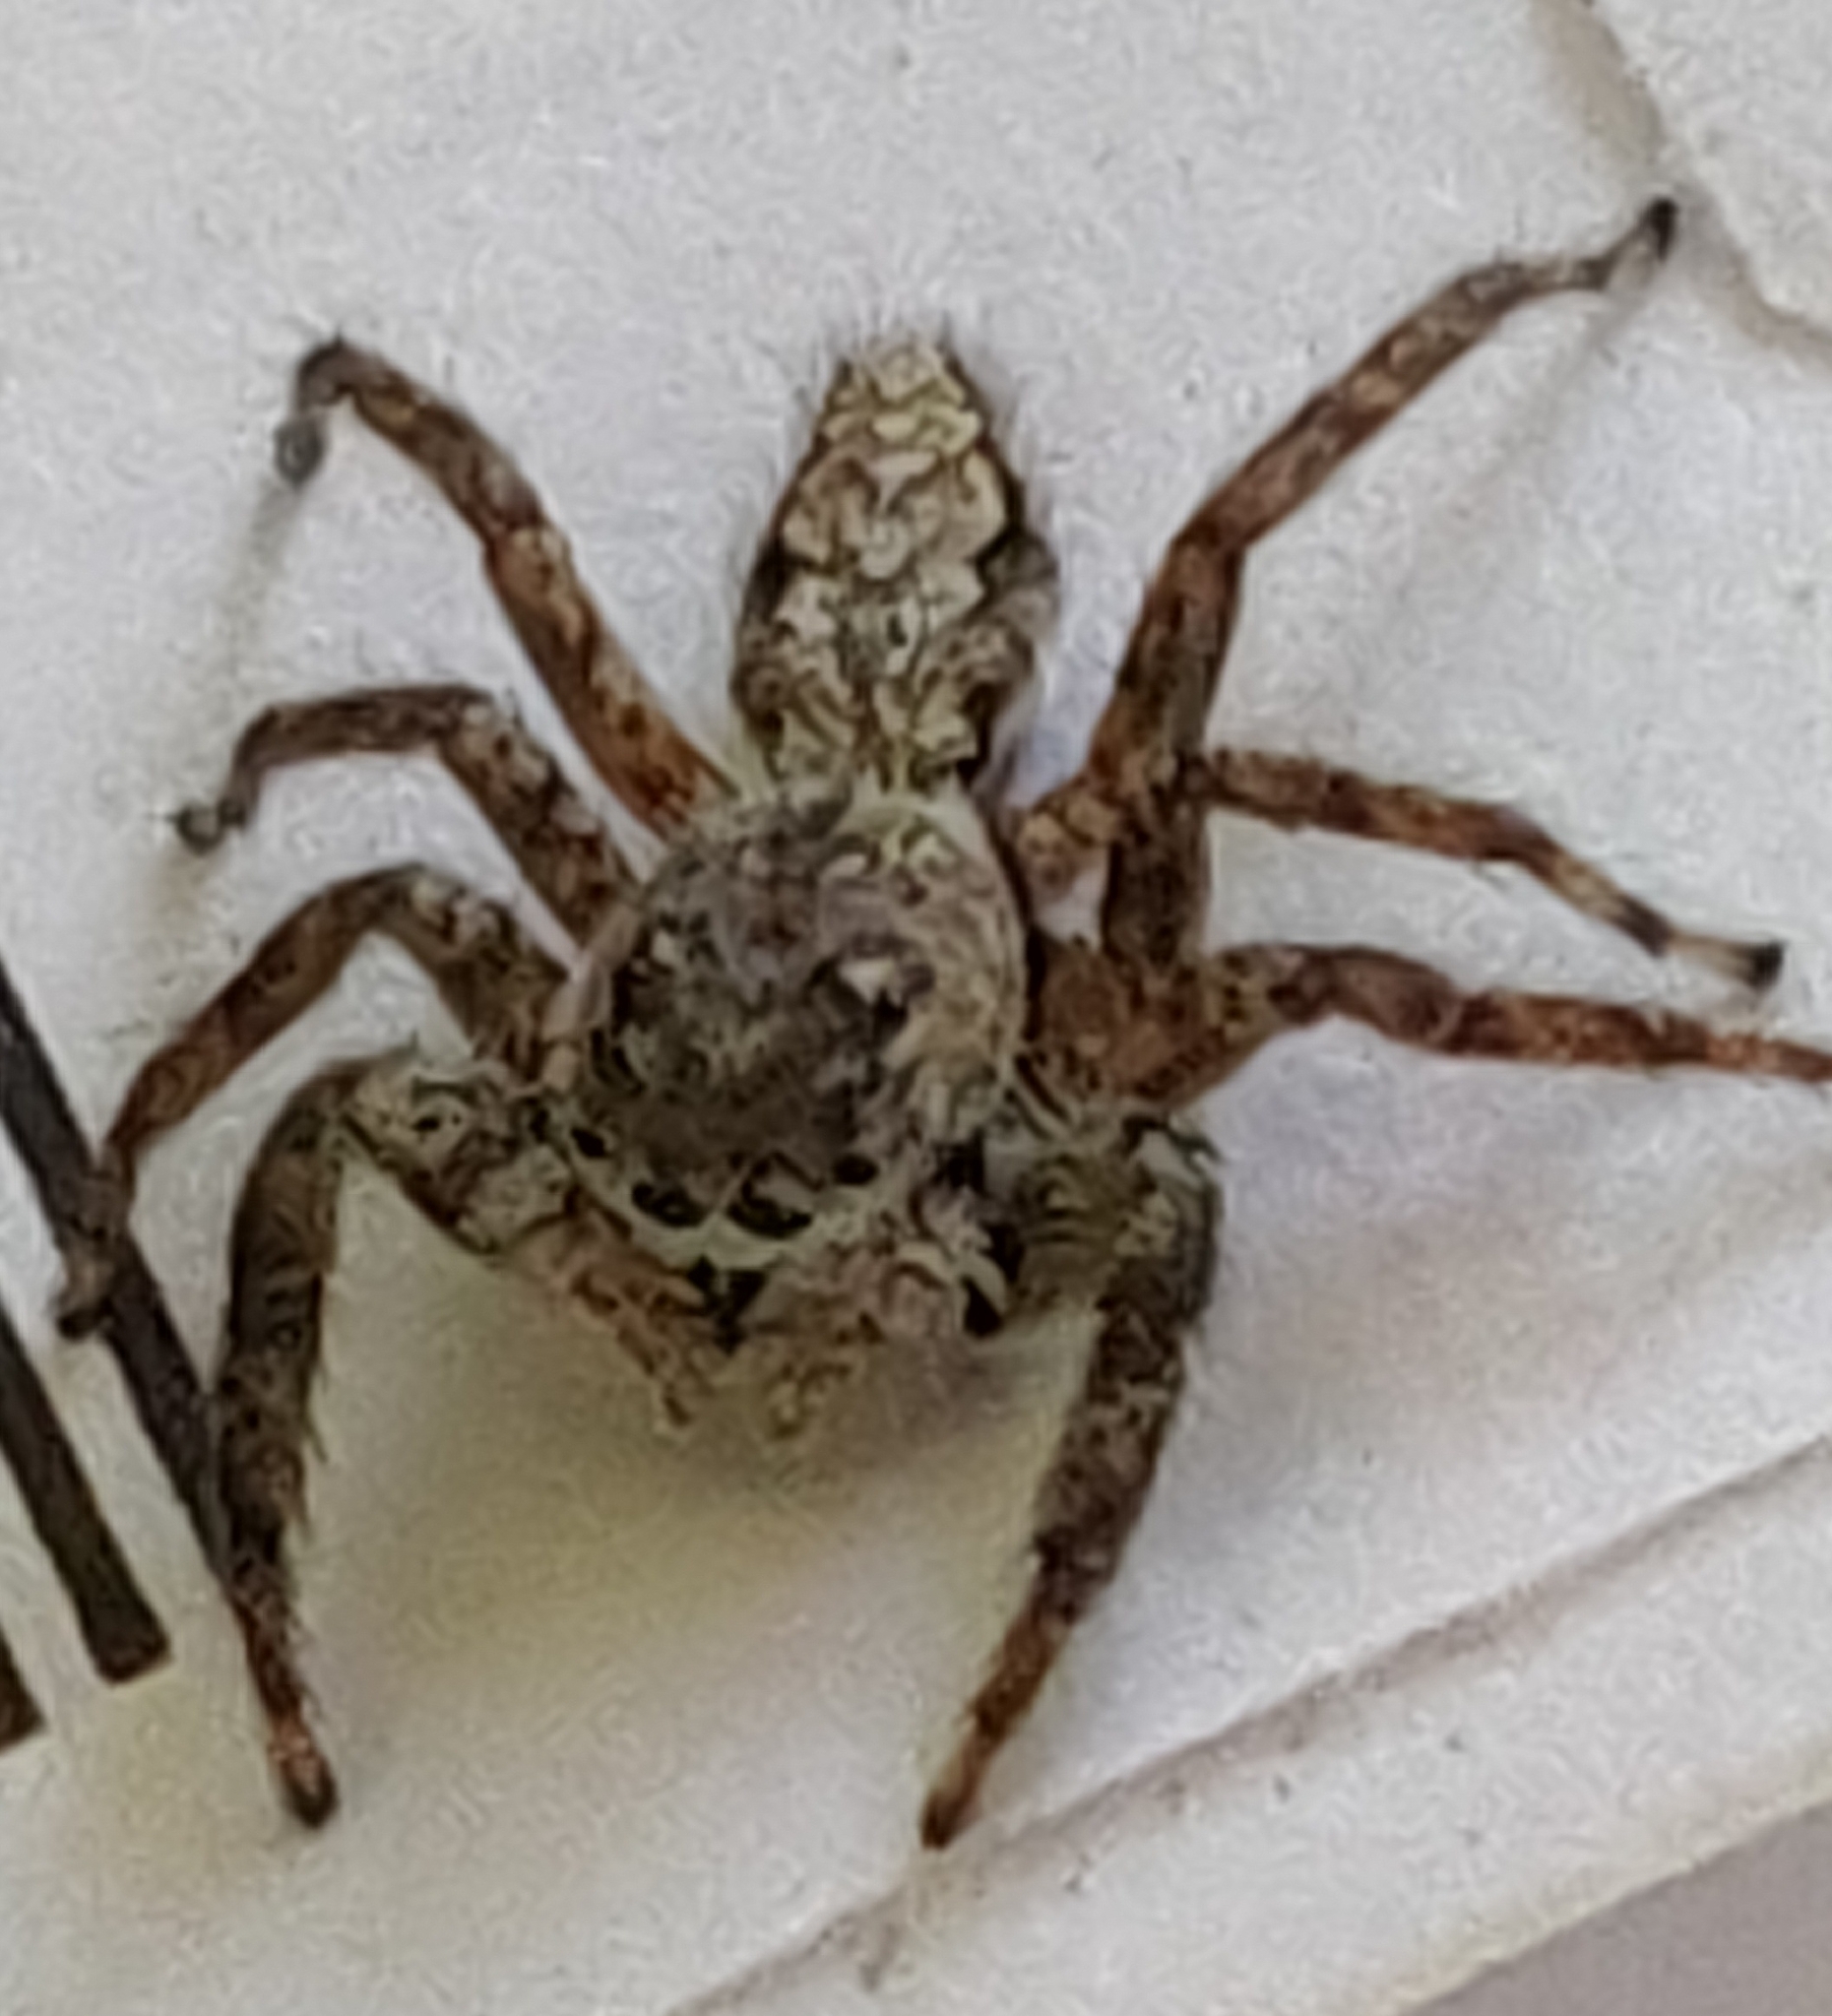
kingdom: Animalia
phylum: Arthropoda
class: Arachnida
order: Araneae
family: Salticidae
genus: Platycryptus
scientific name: Platycryptus undatus
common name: Tan jumping spider
